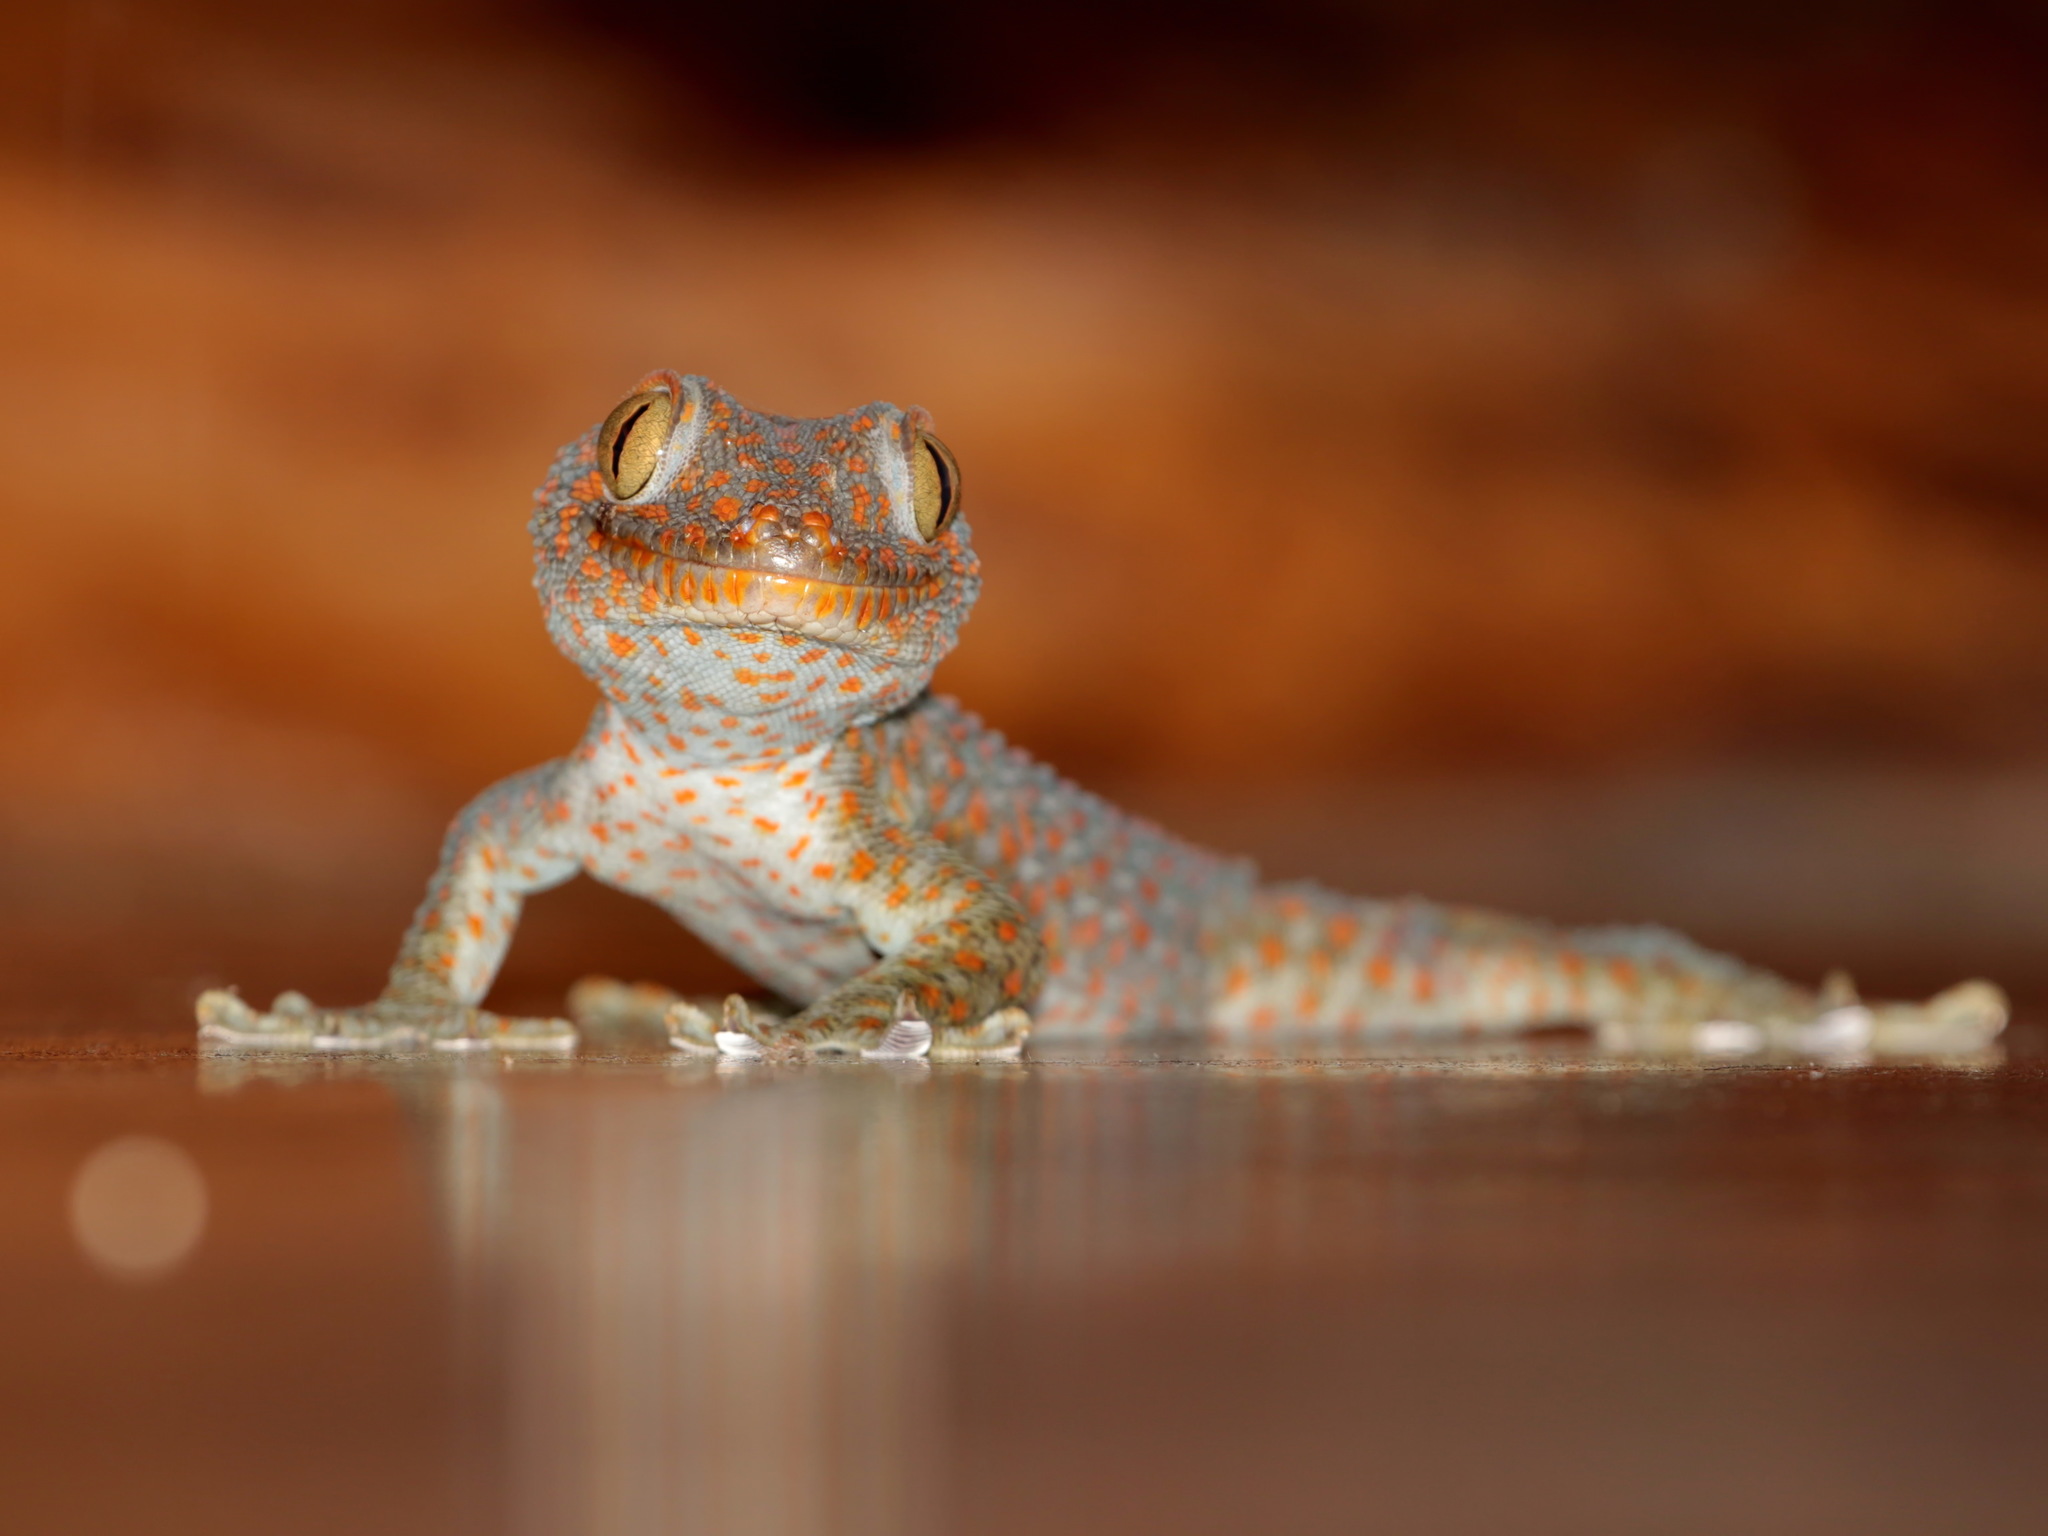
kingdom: Animalia
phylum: Chordata
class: Squamata
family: Gekkonidae
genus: Gekko
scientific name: Gekko gecko
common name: Tokay gecko
